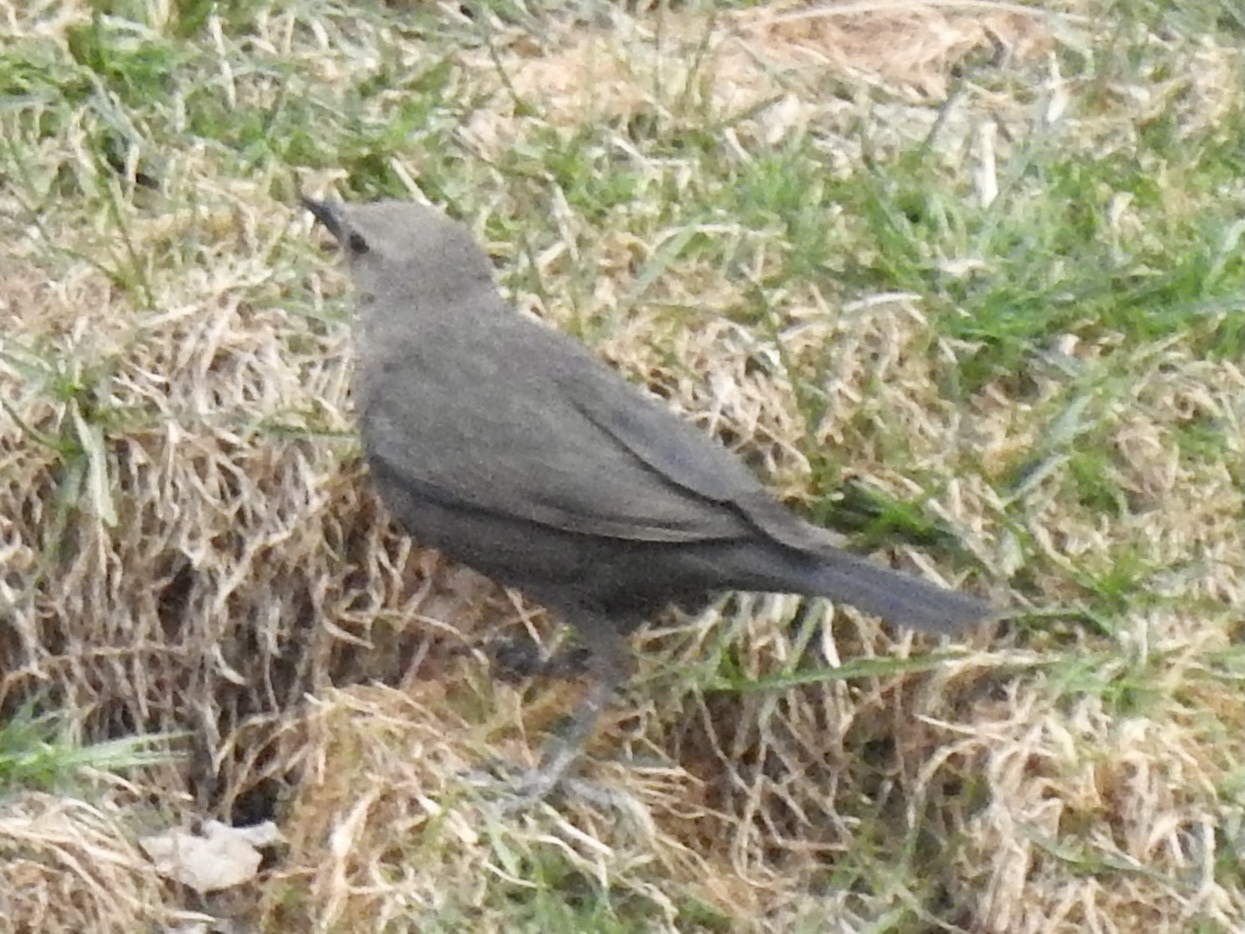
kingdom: Animalia
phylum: Chordata
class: Aves
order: Passeriformes
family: Icteridae
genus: Euphagus
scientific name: Euphagus cyanocephalus
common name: Brewer's blackbird
